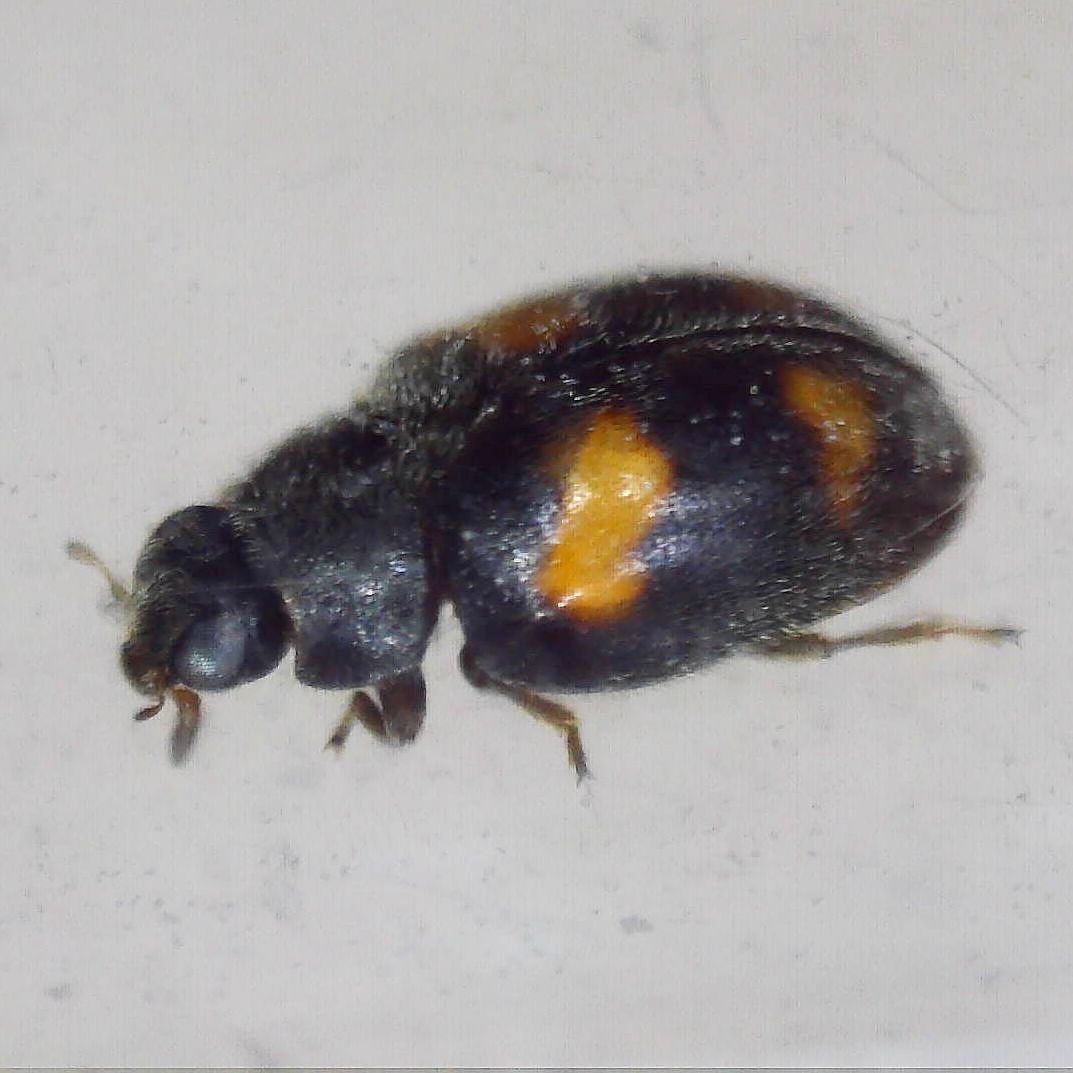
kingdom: Animalia
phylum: Arthropoda
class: Insecta
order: Coleoptera
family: Coccinellidae
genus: Nephus
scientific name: Nephus quadrimaculatus
